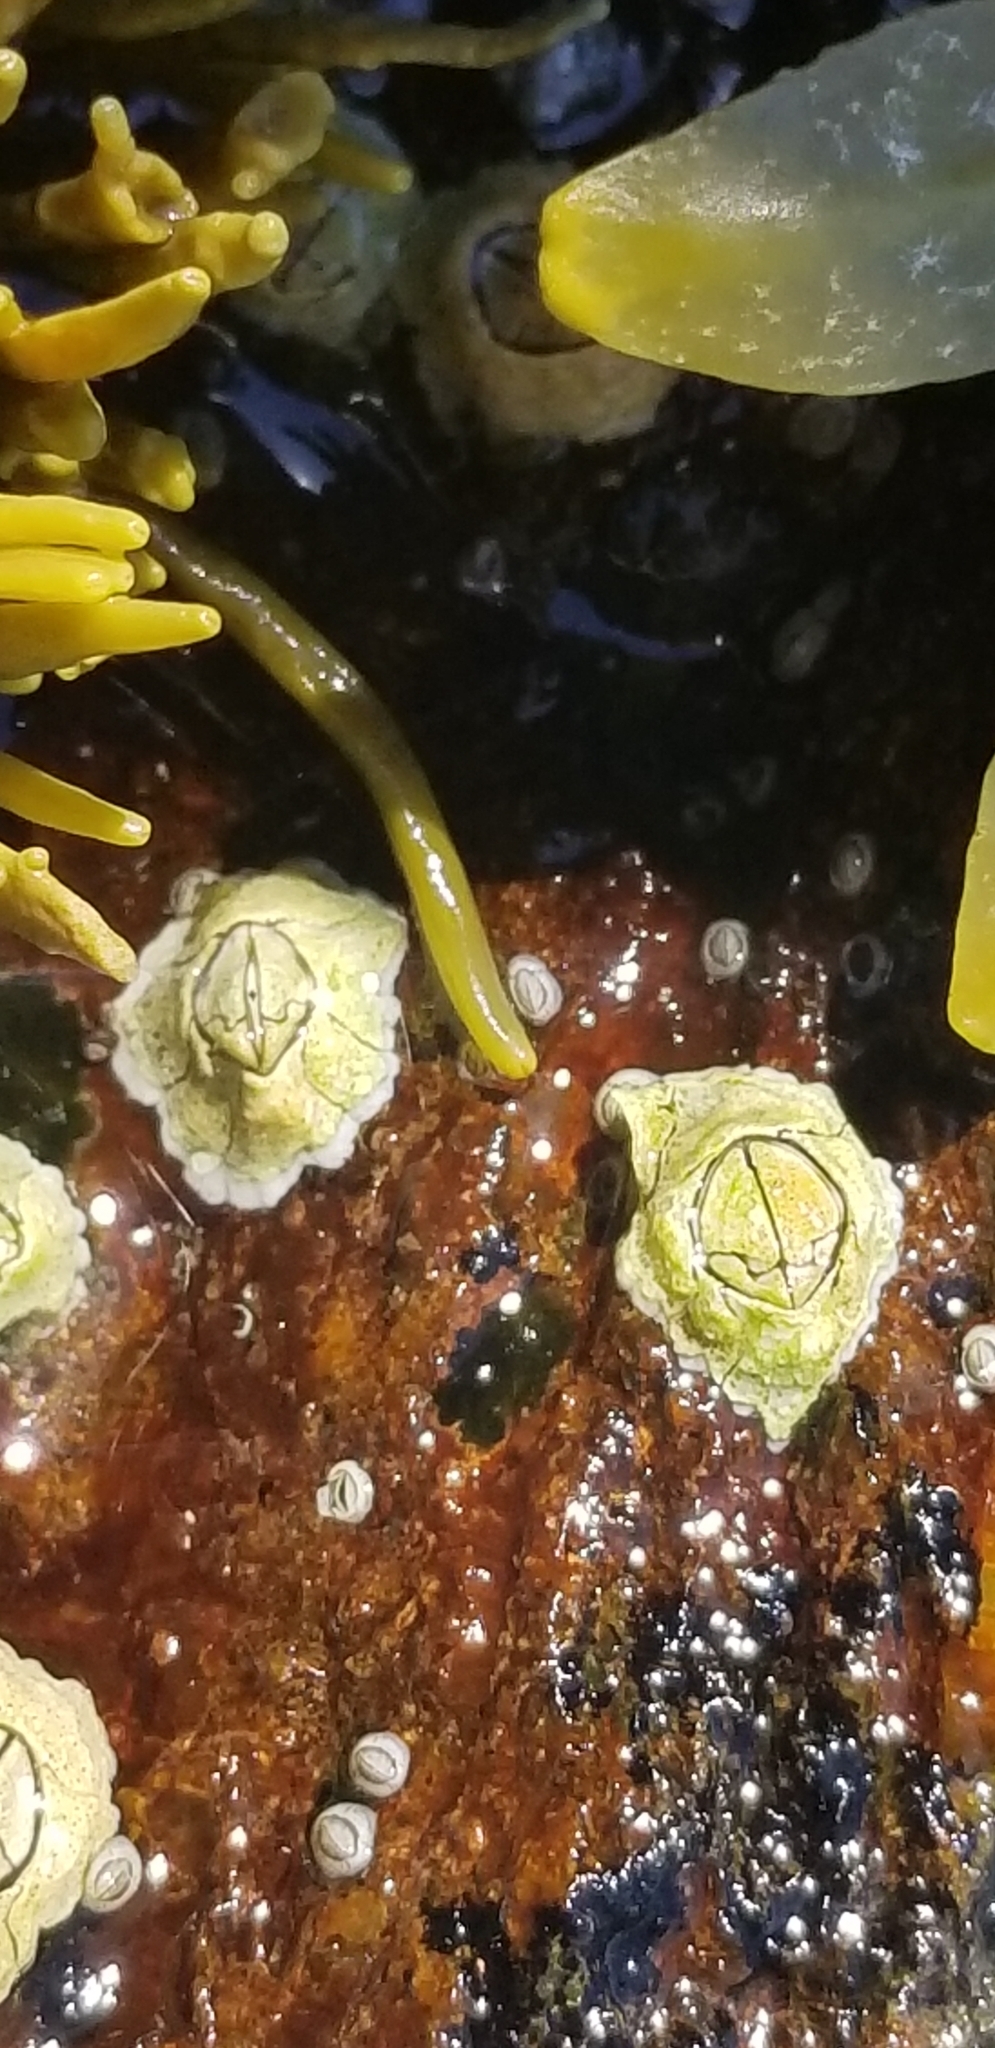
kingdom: Animalia
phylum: Arthropoda
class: Maxillopoda
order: Sessilia
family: Archaeobalanidae
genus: Semibalanus
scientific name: Semibalanus balanoides
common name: Acorn barnacle
